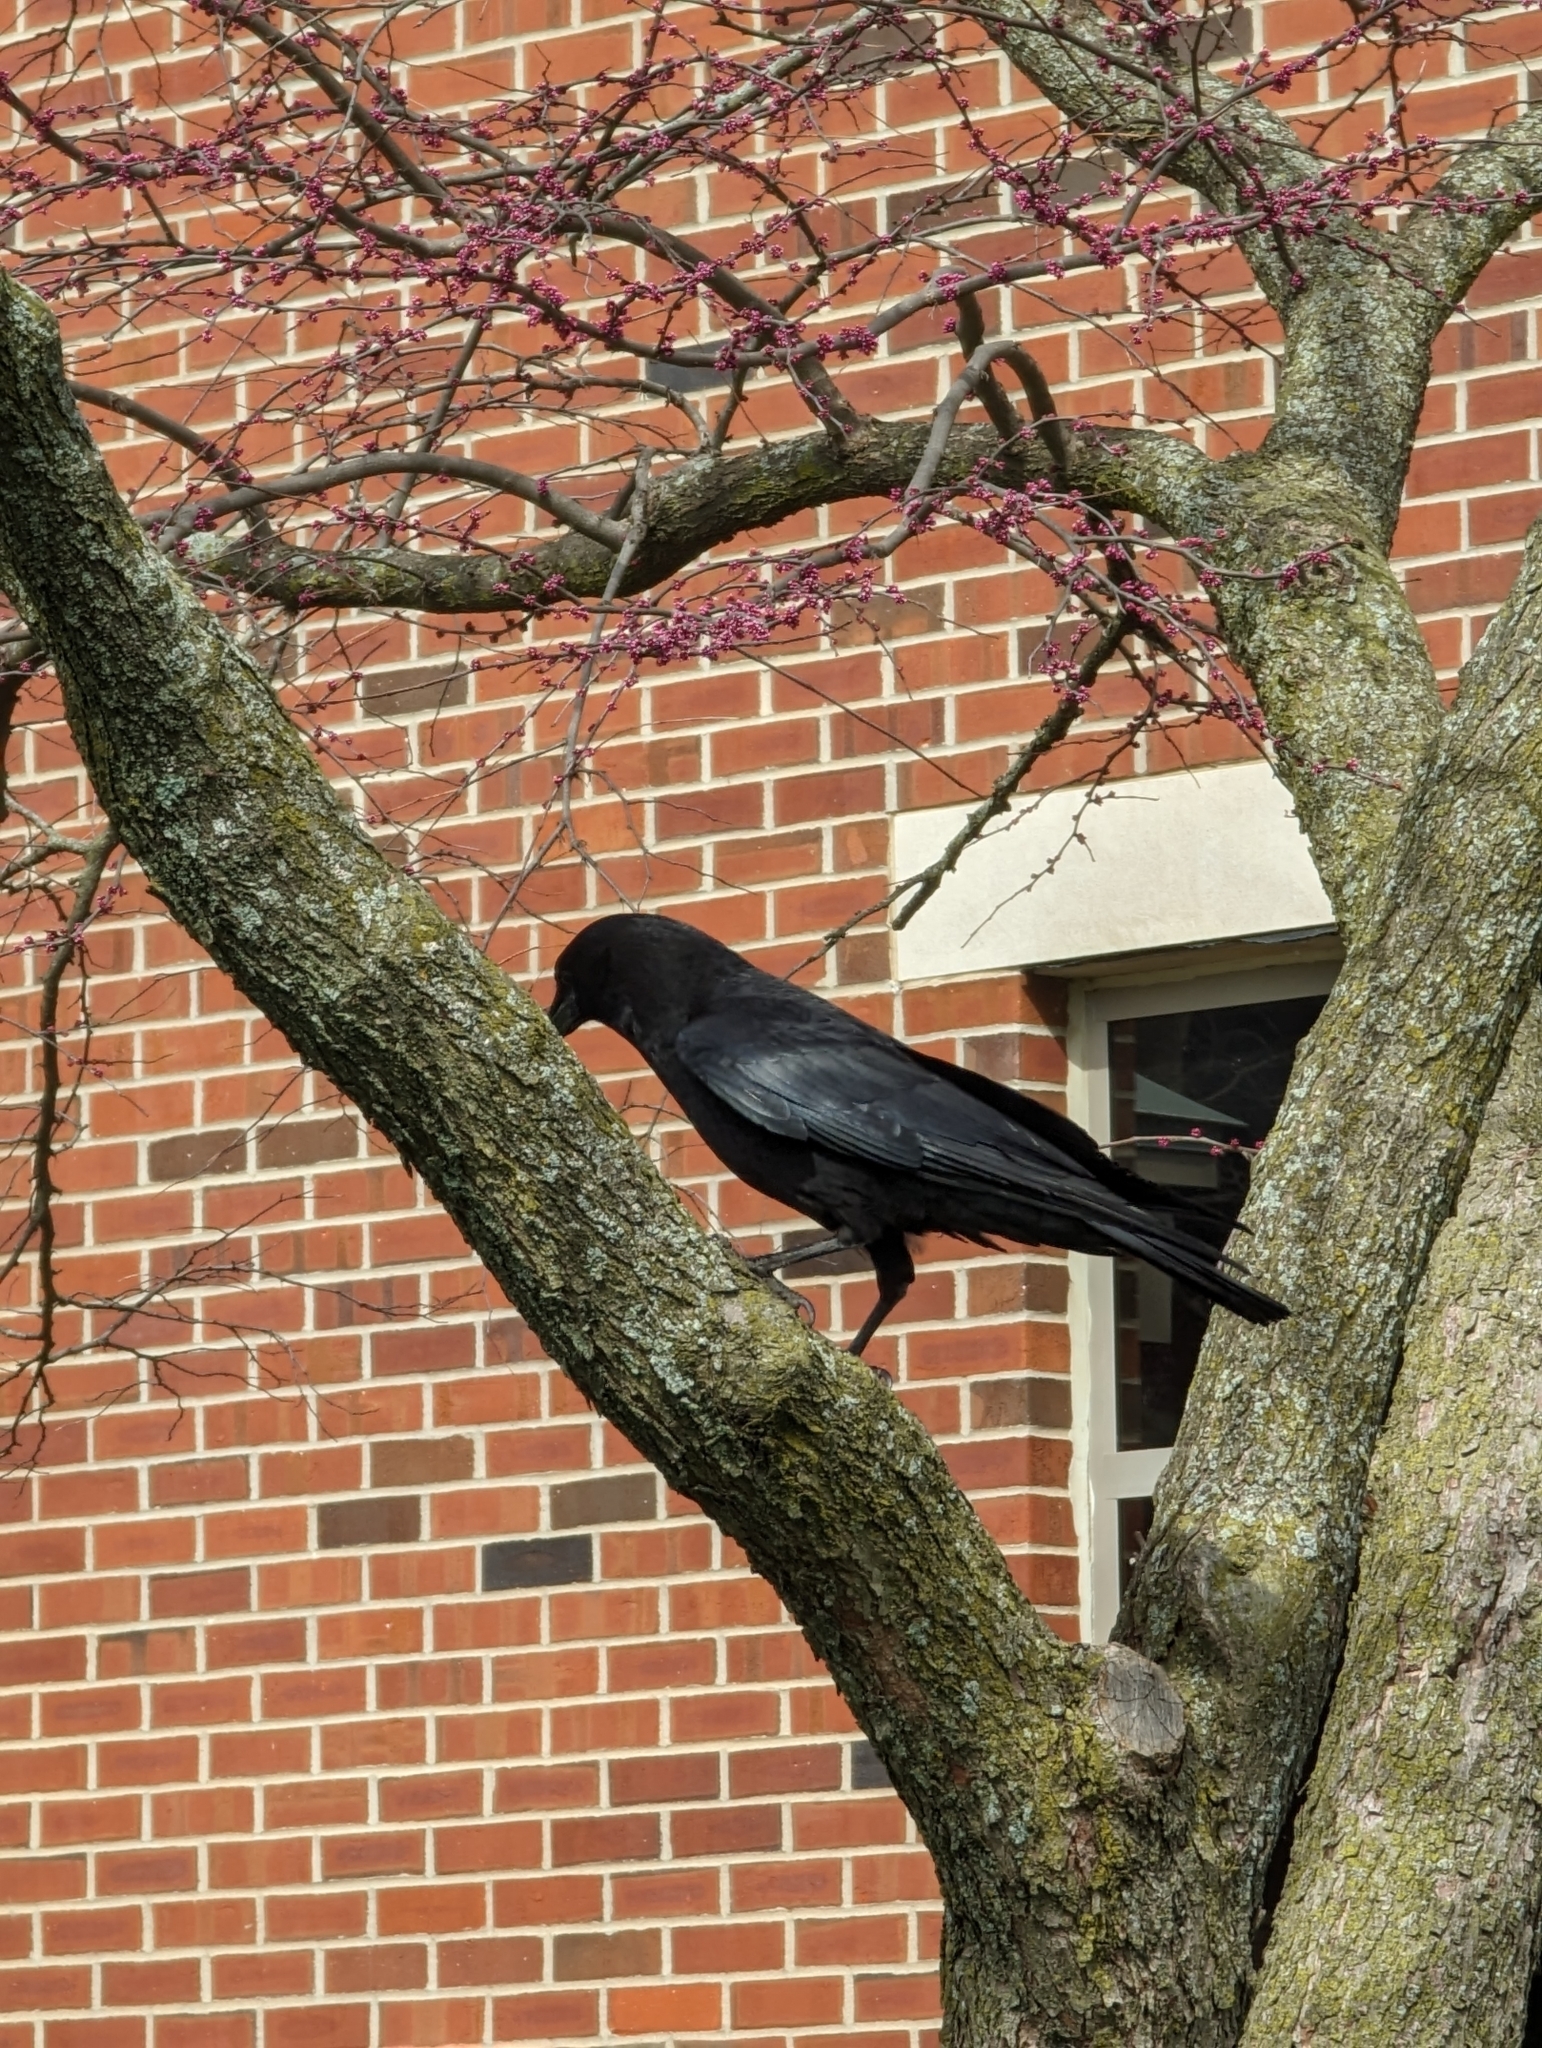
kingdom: Animalia
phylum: Chordata
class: Aves
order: Passeriformes
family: Corvidae
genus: Corvus
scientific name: Corvus brachyrhynchos
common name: American crow
